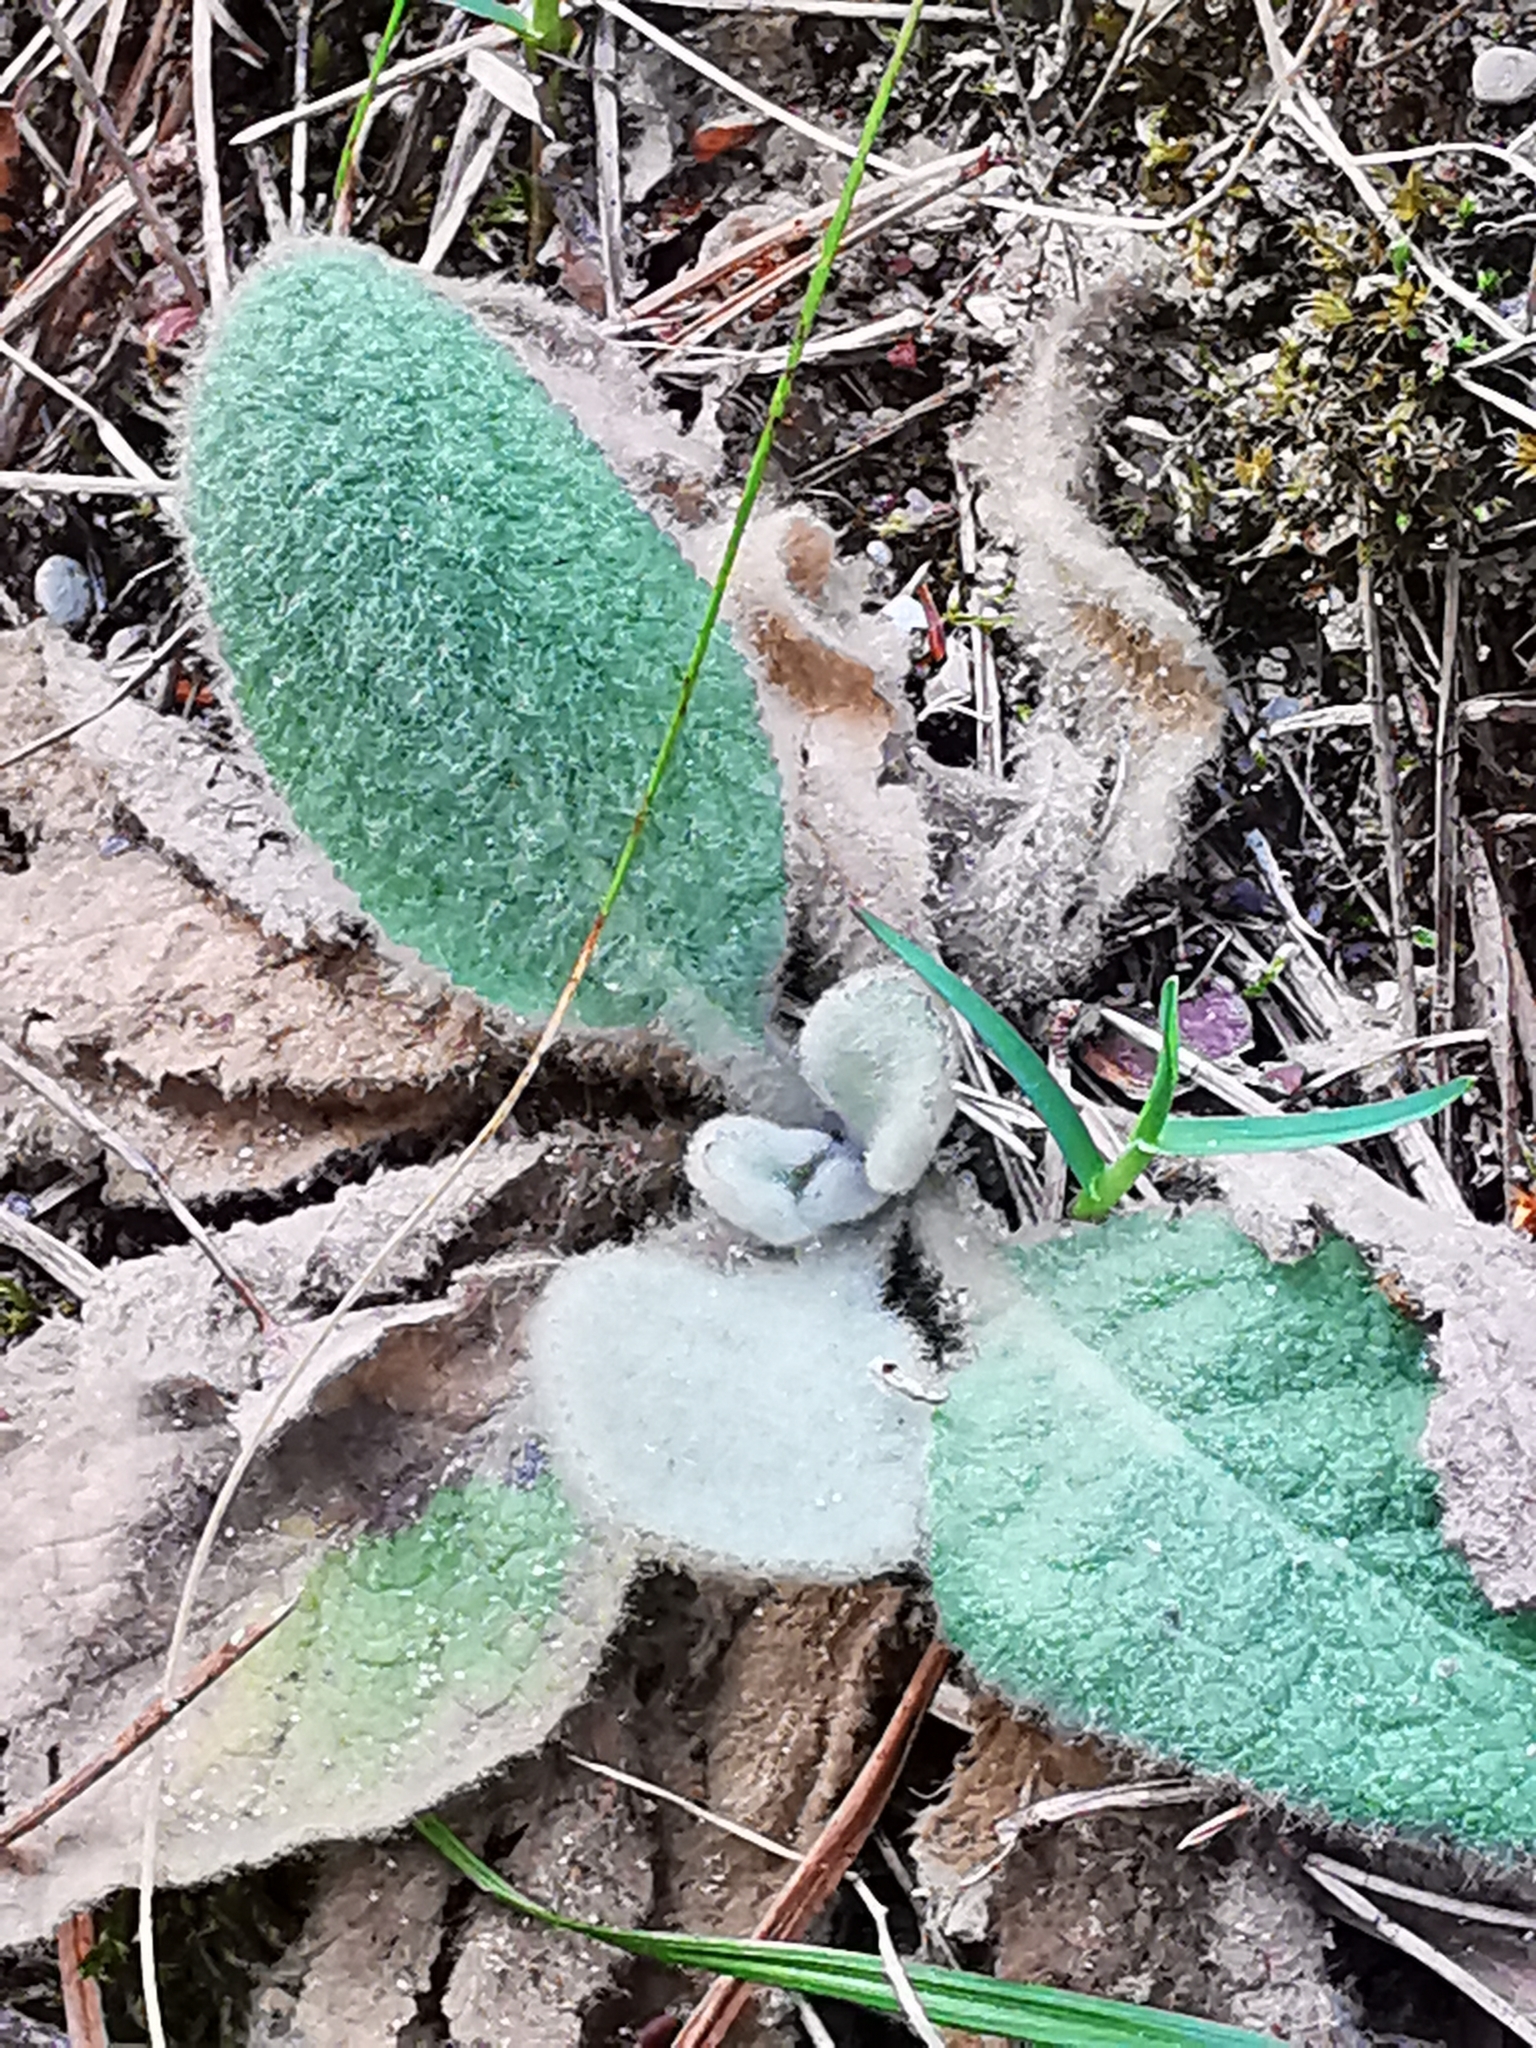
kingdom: Plantae
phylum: Tracheophyta
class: Magnoliopsida
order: Lamiales
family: Scrophulariaceae
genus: Verbascum
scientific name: Verbascum thapsus
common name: Common mullein
